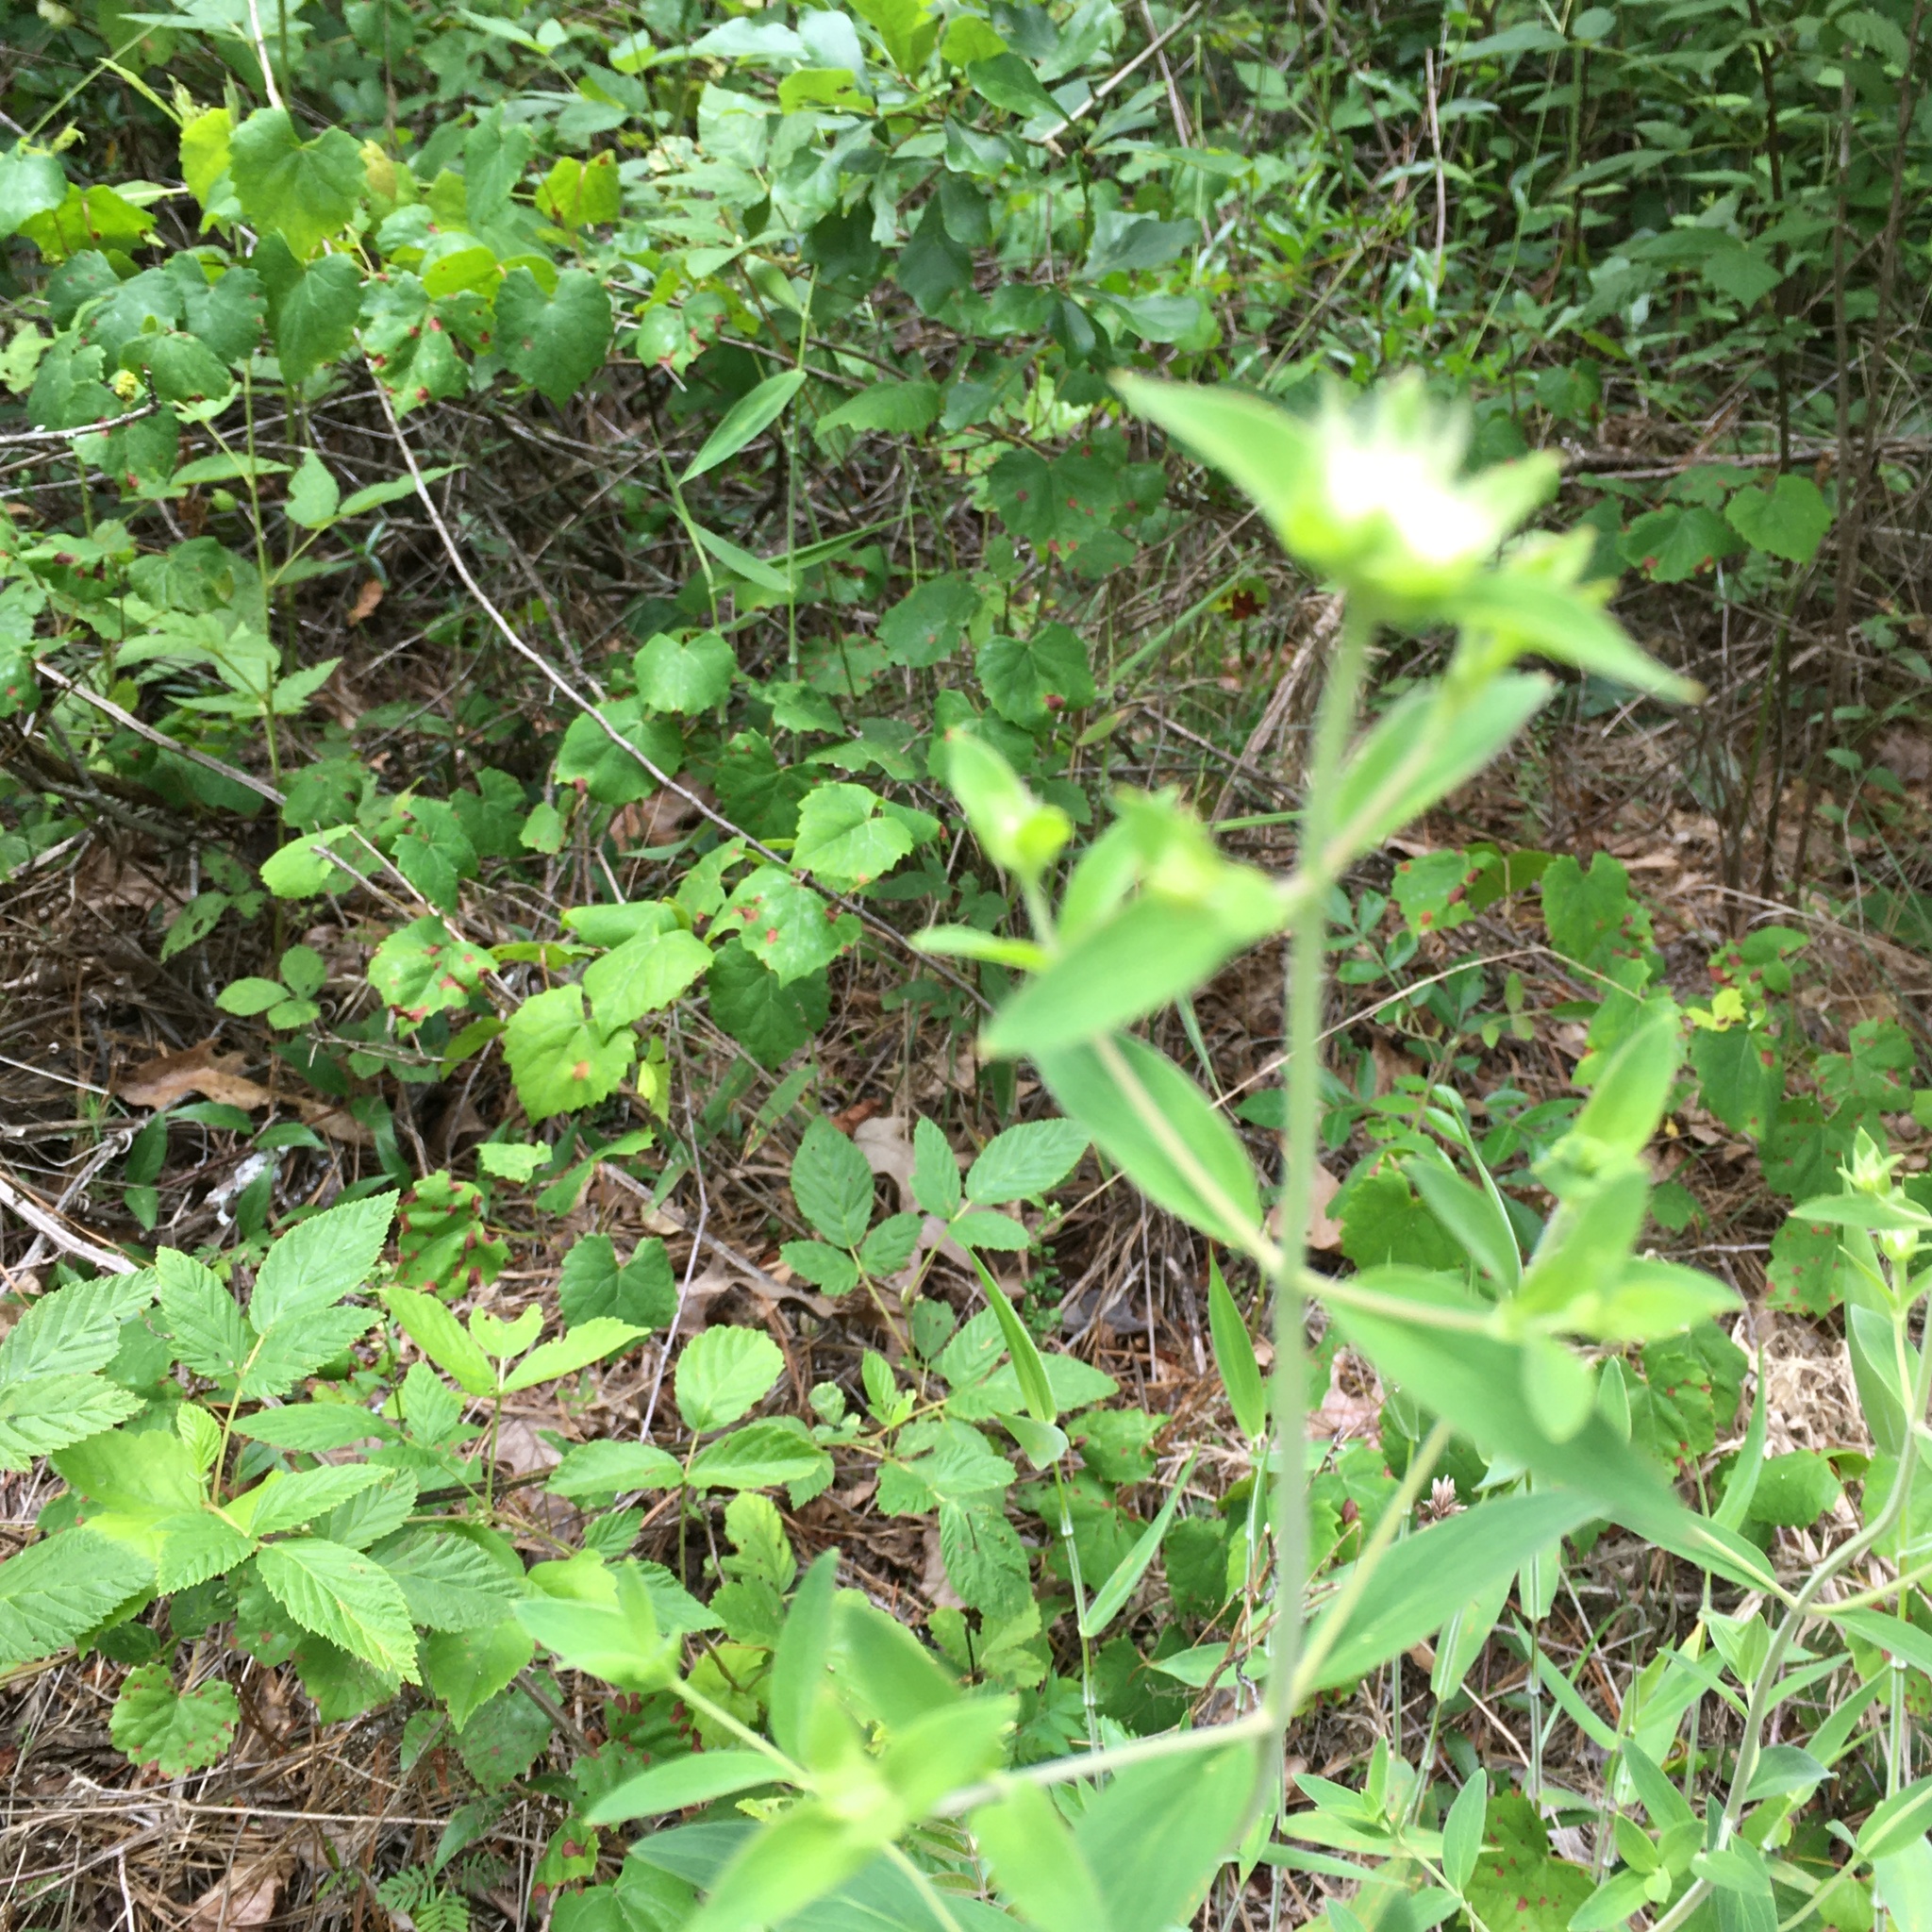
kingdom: Plantae
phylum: Tracheophyta
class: Magnoliopsida
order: Lamiales
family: Lamiaceae
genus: Pycnanthemum
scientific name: Pycnanthemum flexuosum
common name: Appalachian mountain-mint
